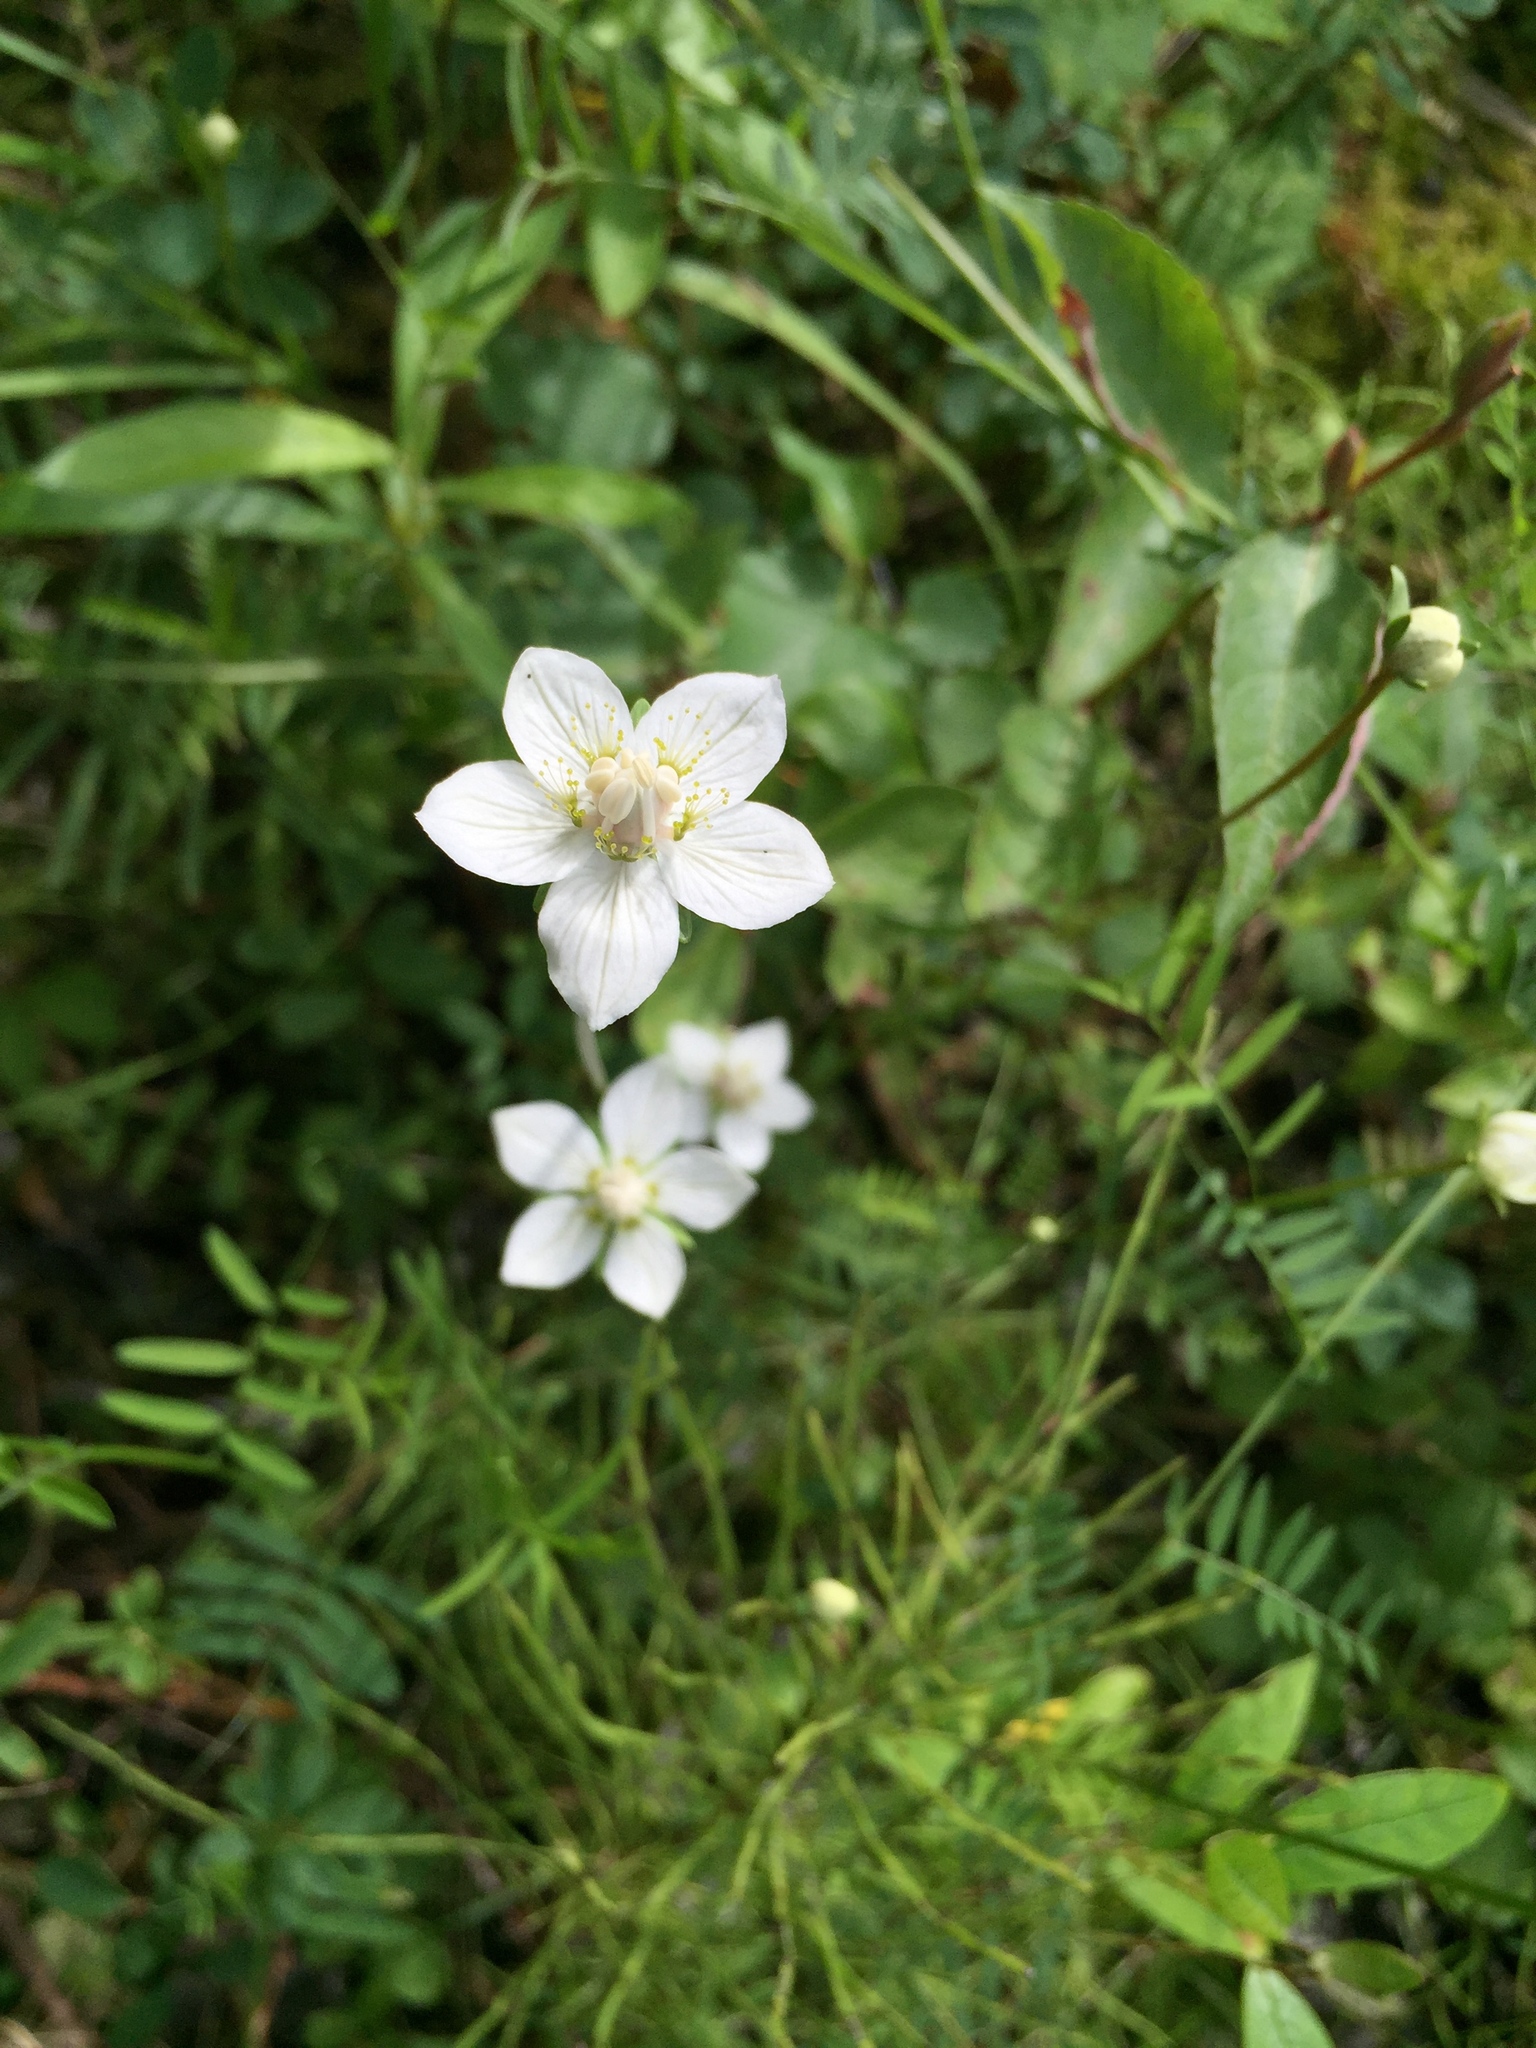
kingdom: Plantae
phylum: Tracheophyta
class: Magnoliopsida
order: Celastrales
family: Parnassiaceae
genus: Parnassia
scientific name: Parnassia palustris
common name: Grass-of-parnassus
